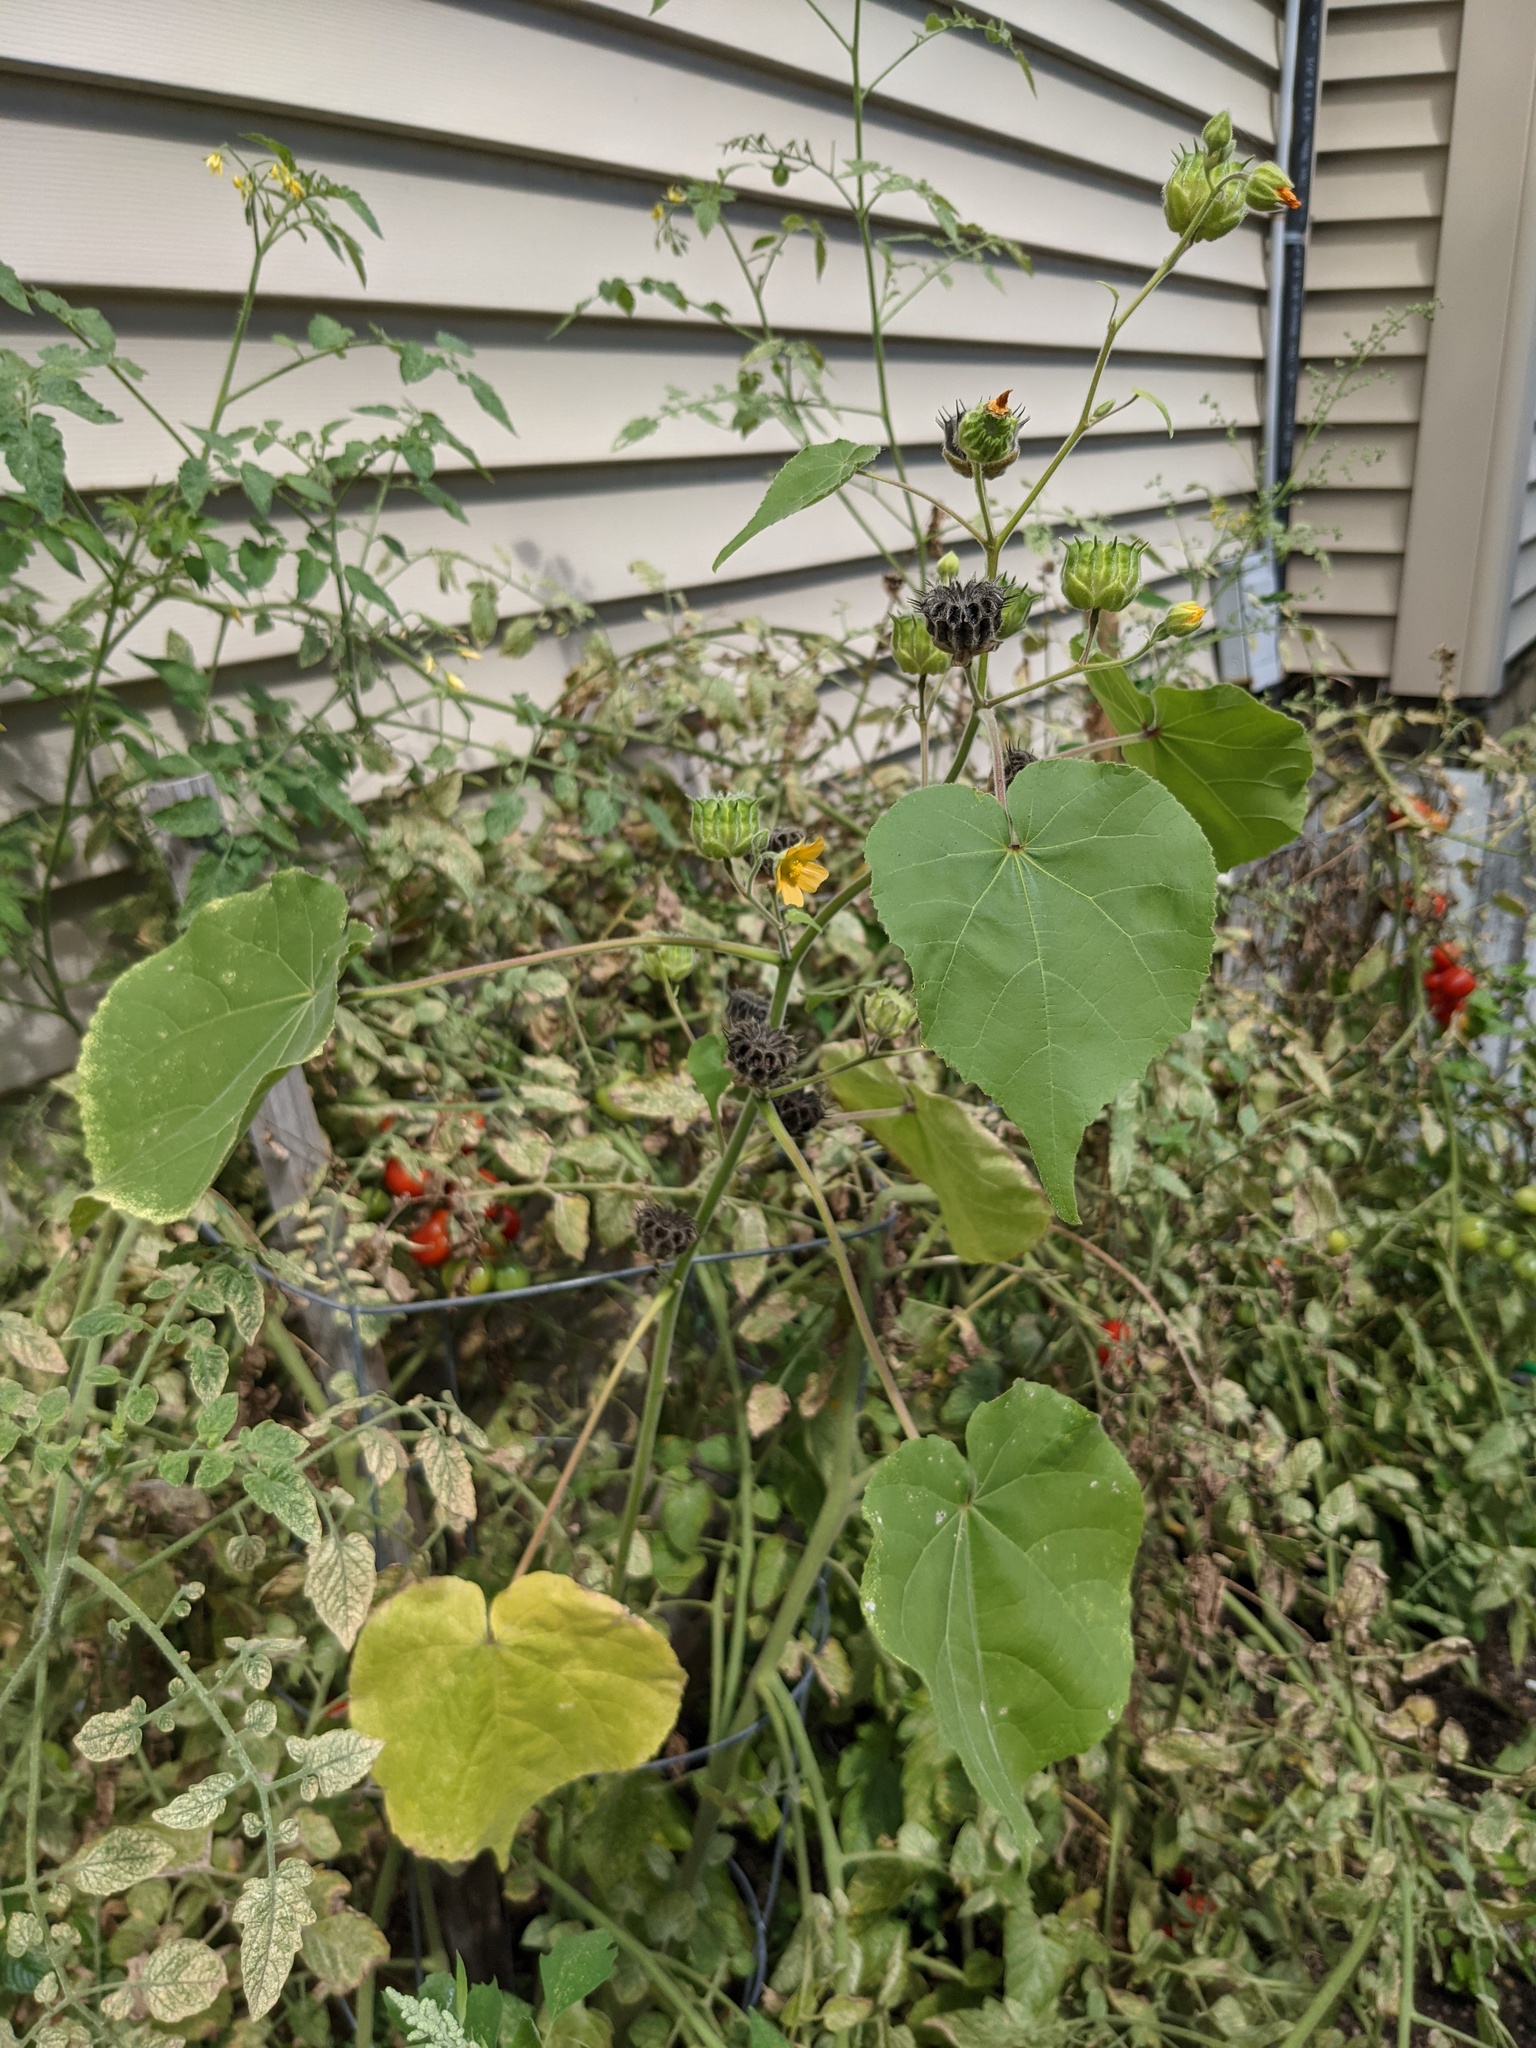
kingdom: Plantae
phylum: Tracheophyta
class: Magnoliopsida
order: Malvales
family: Malvaceae
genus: Abutilon
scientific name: Abutilon theophrasti
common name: Velvetleaf
